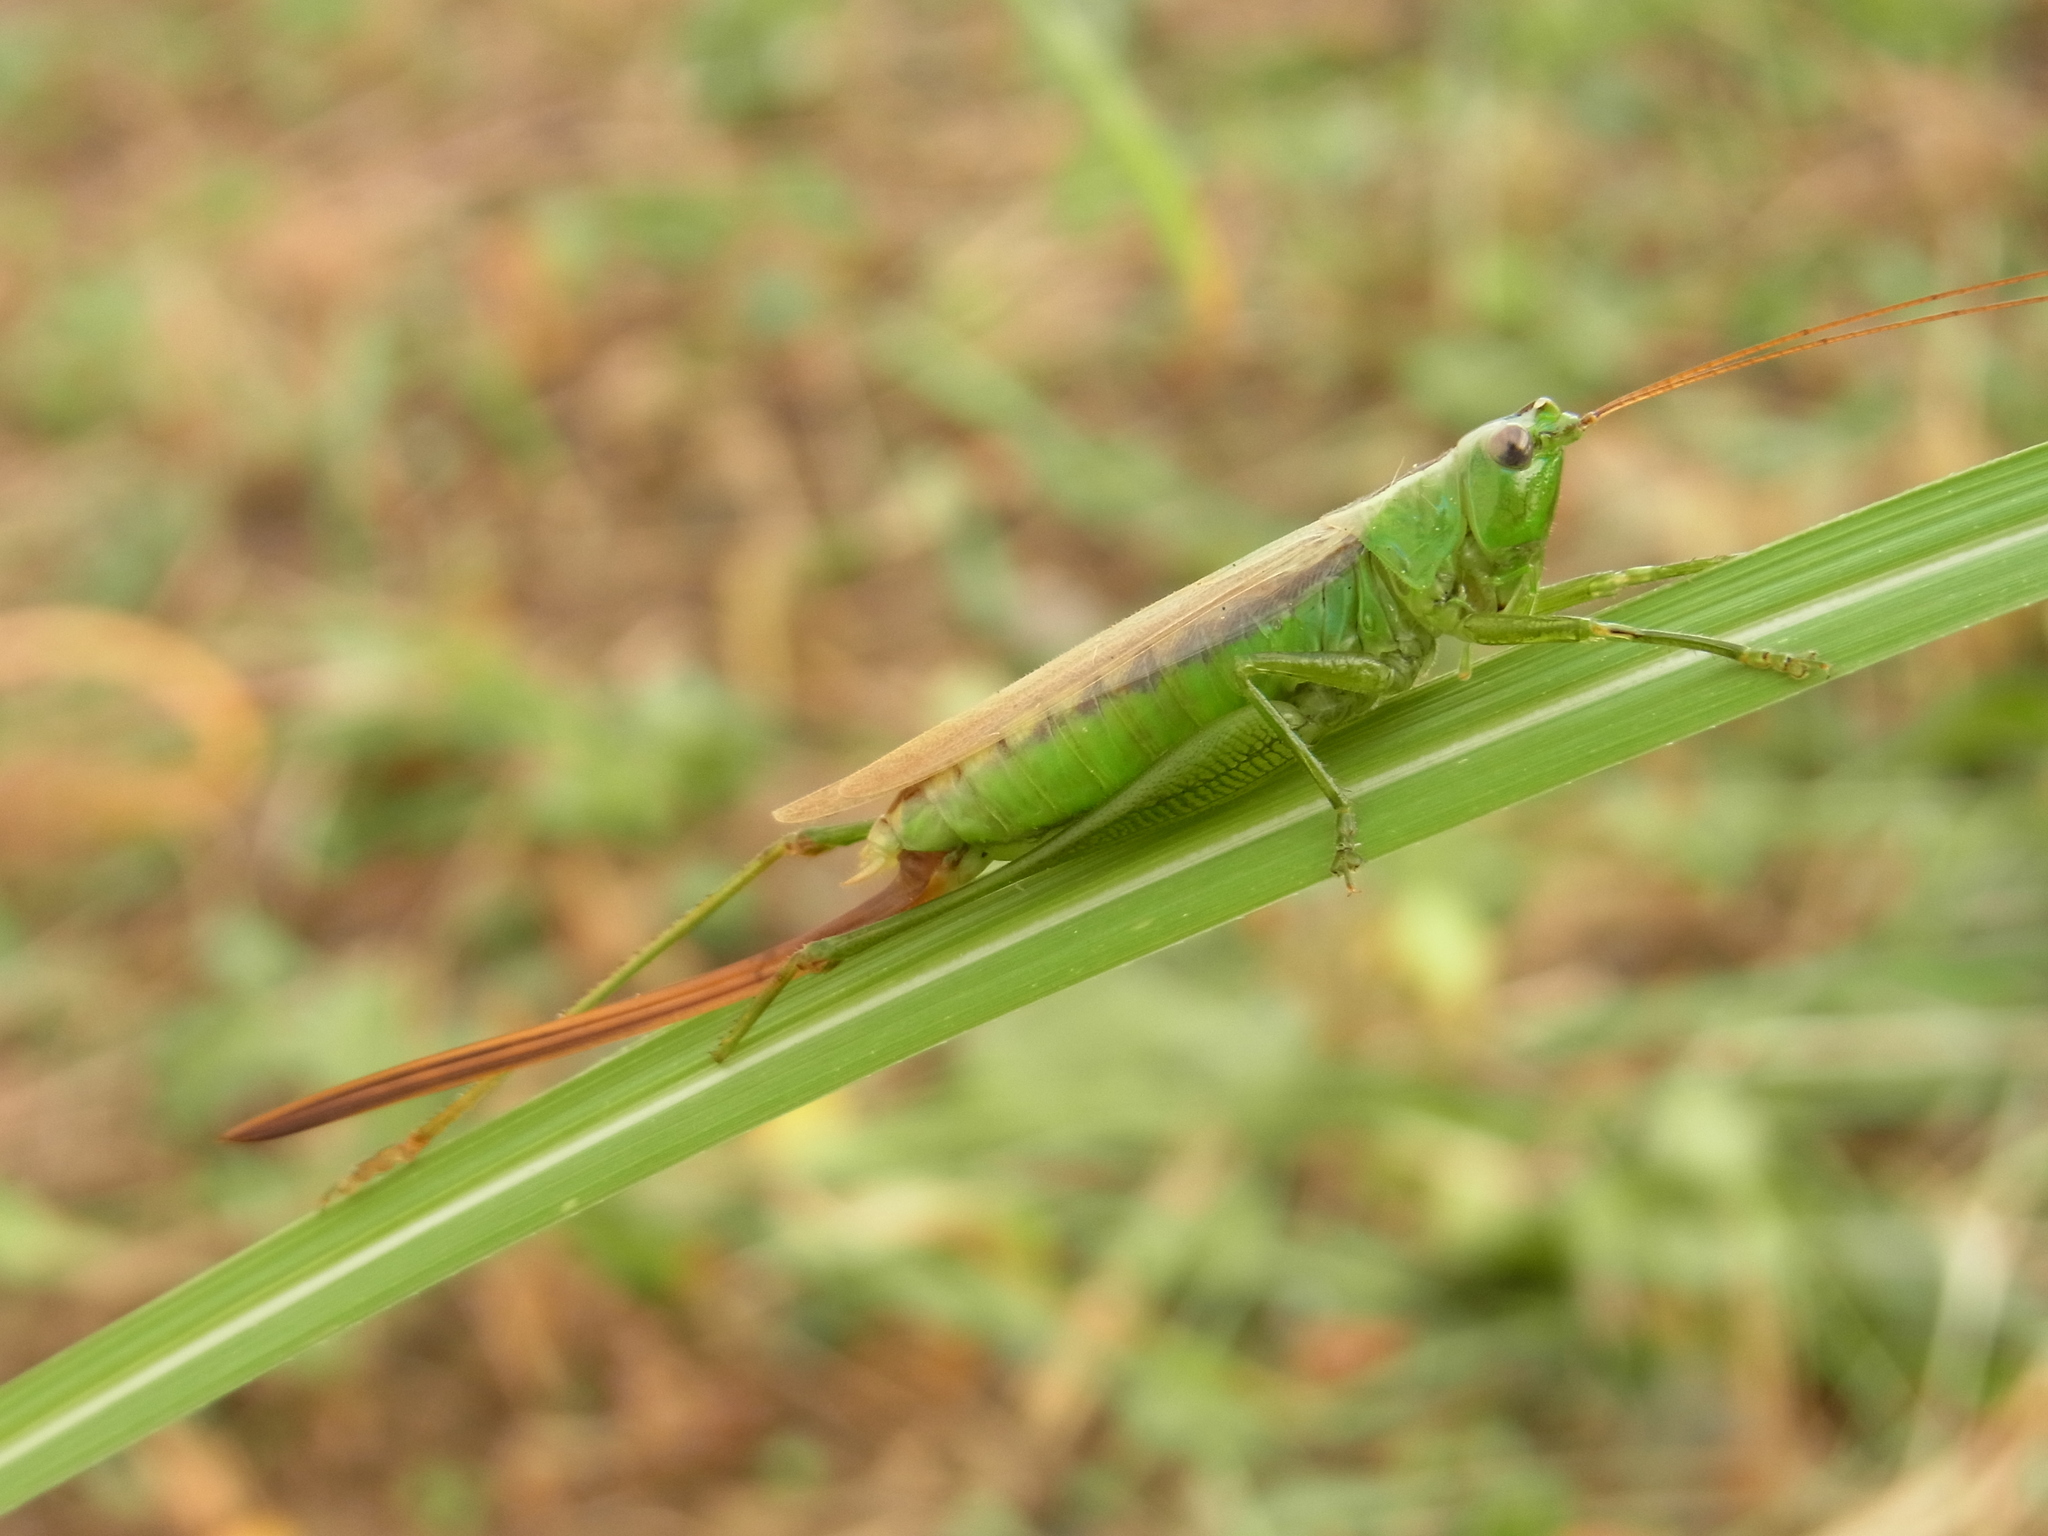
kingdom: Animalia
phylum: Arthropoda
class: Insecta
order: Orthoptera
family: Tettigoniidae
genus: Conocephalus
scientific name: Conocephalus exemptus
